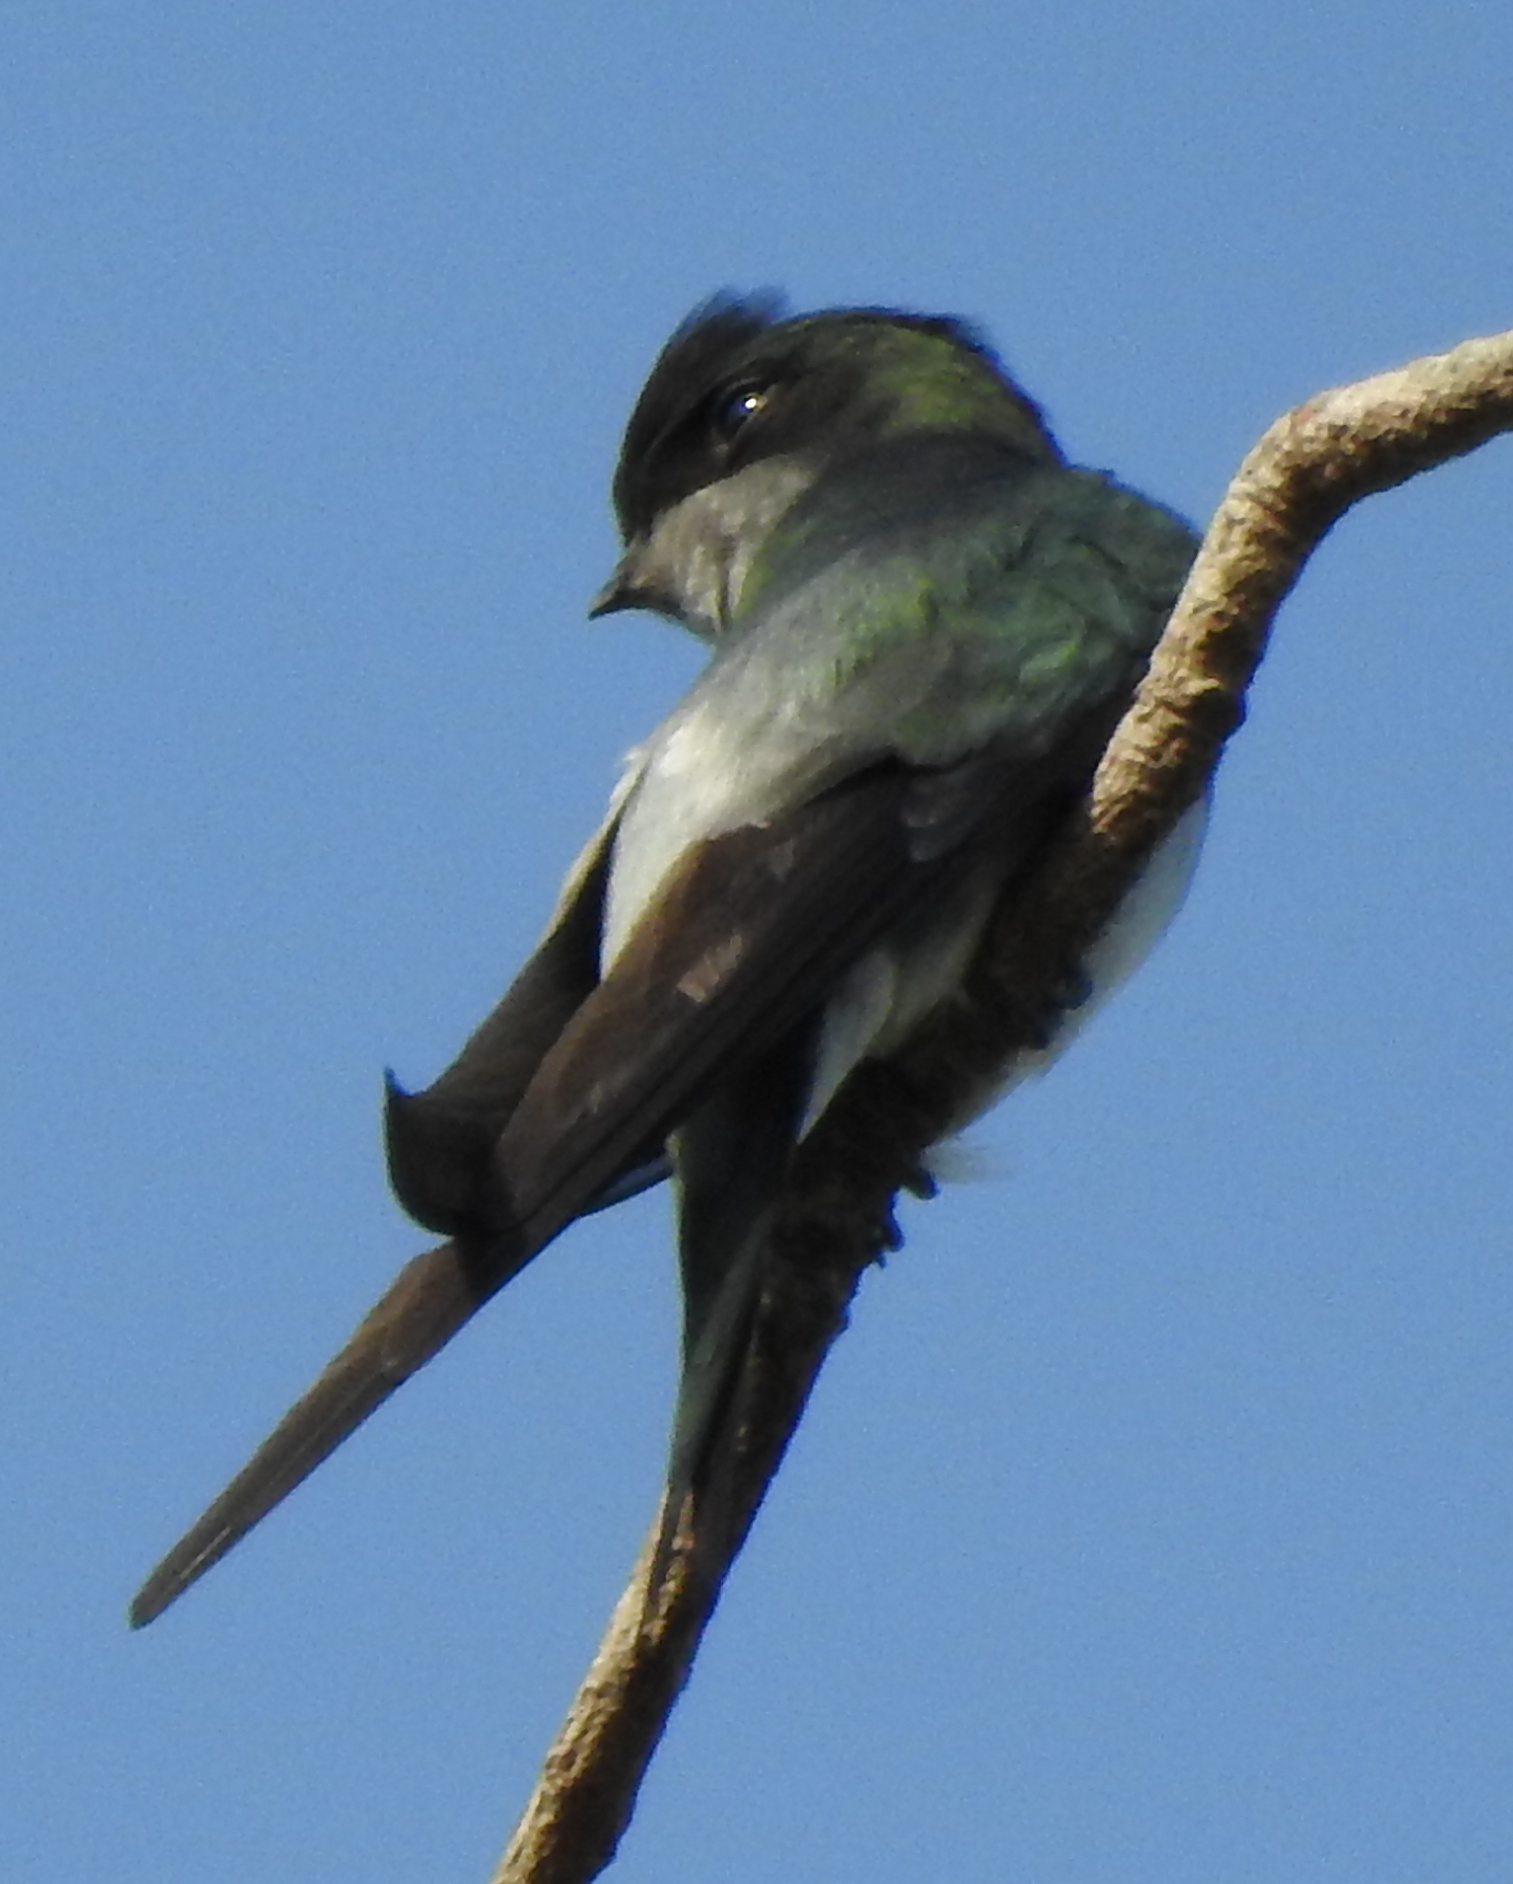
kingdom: Animalia
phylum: Chordata
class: Aves
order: Apodiformes
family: Hemiprocnidae
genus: Hemiprocne
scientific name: Hemiprocne longipennis
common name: Grey-rumped treeswift
